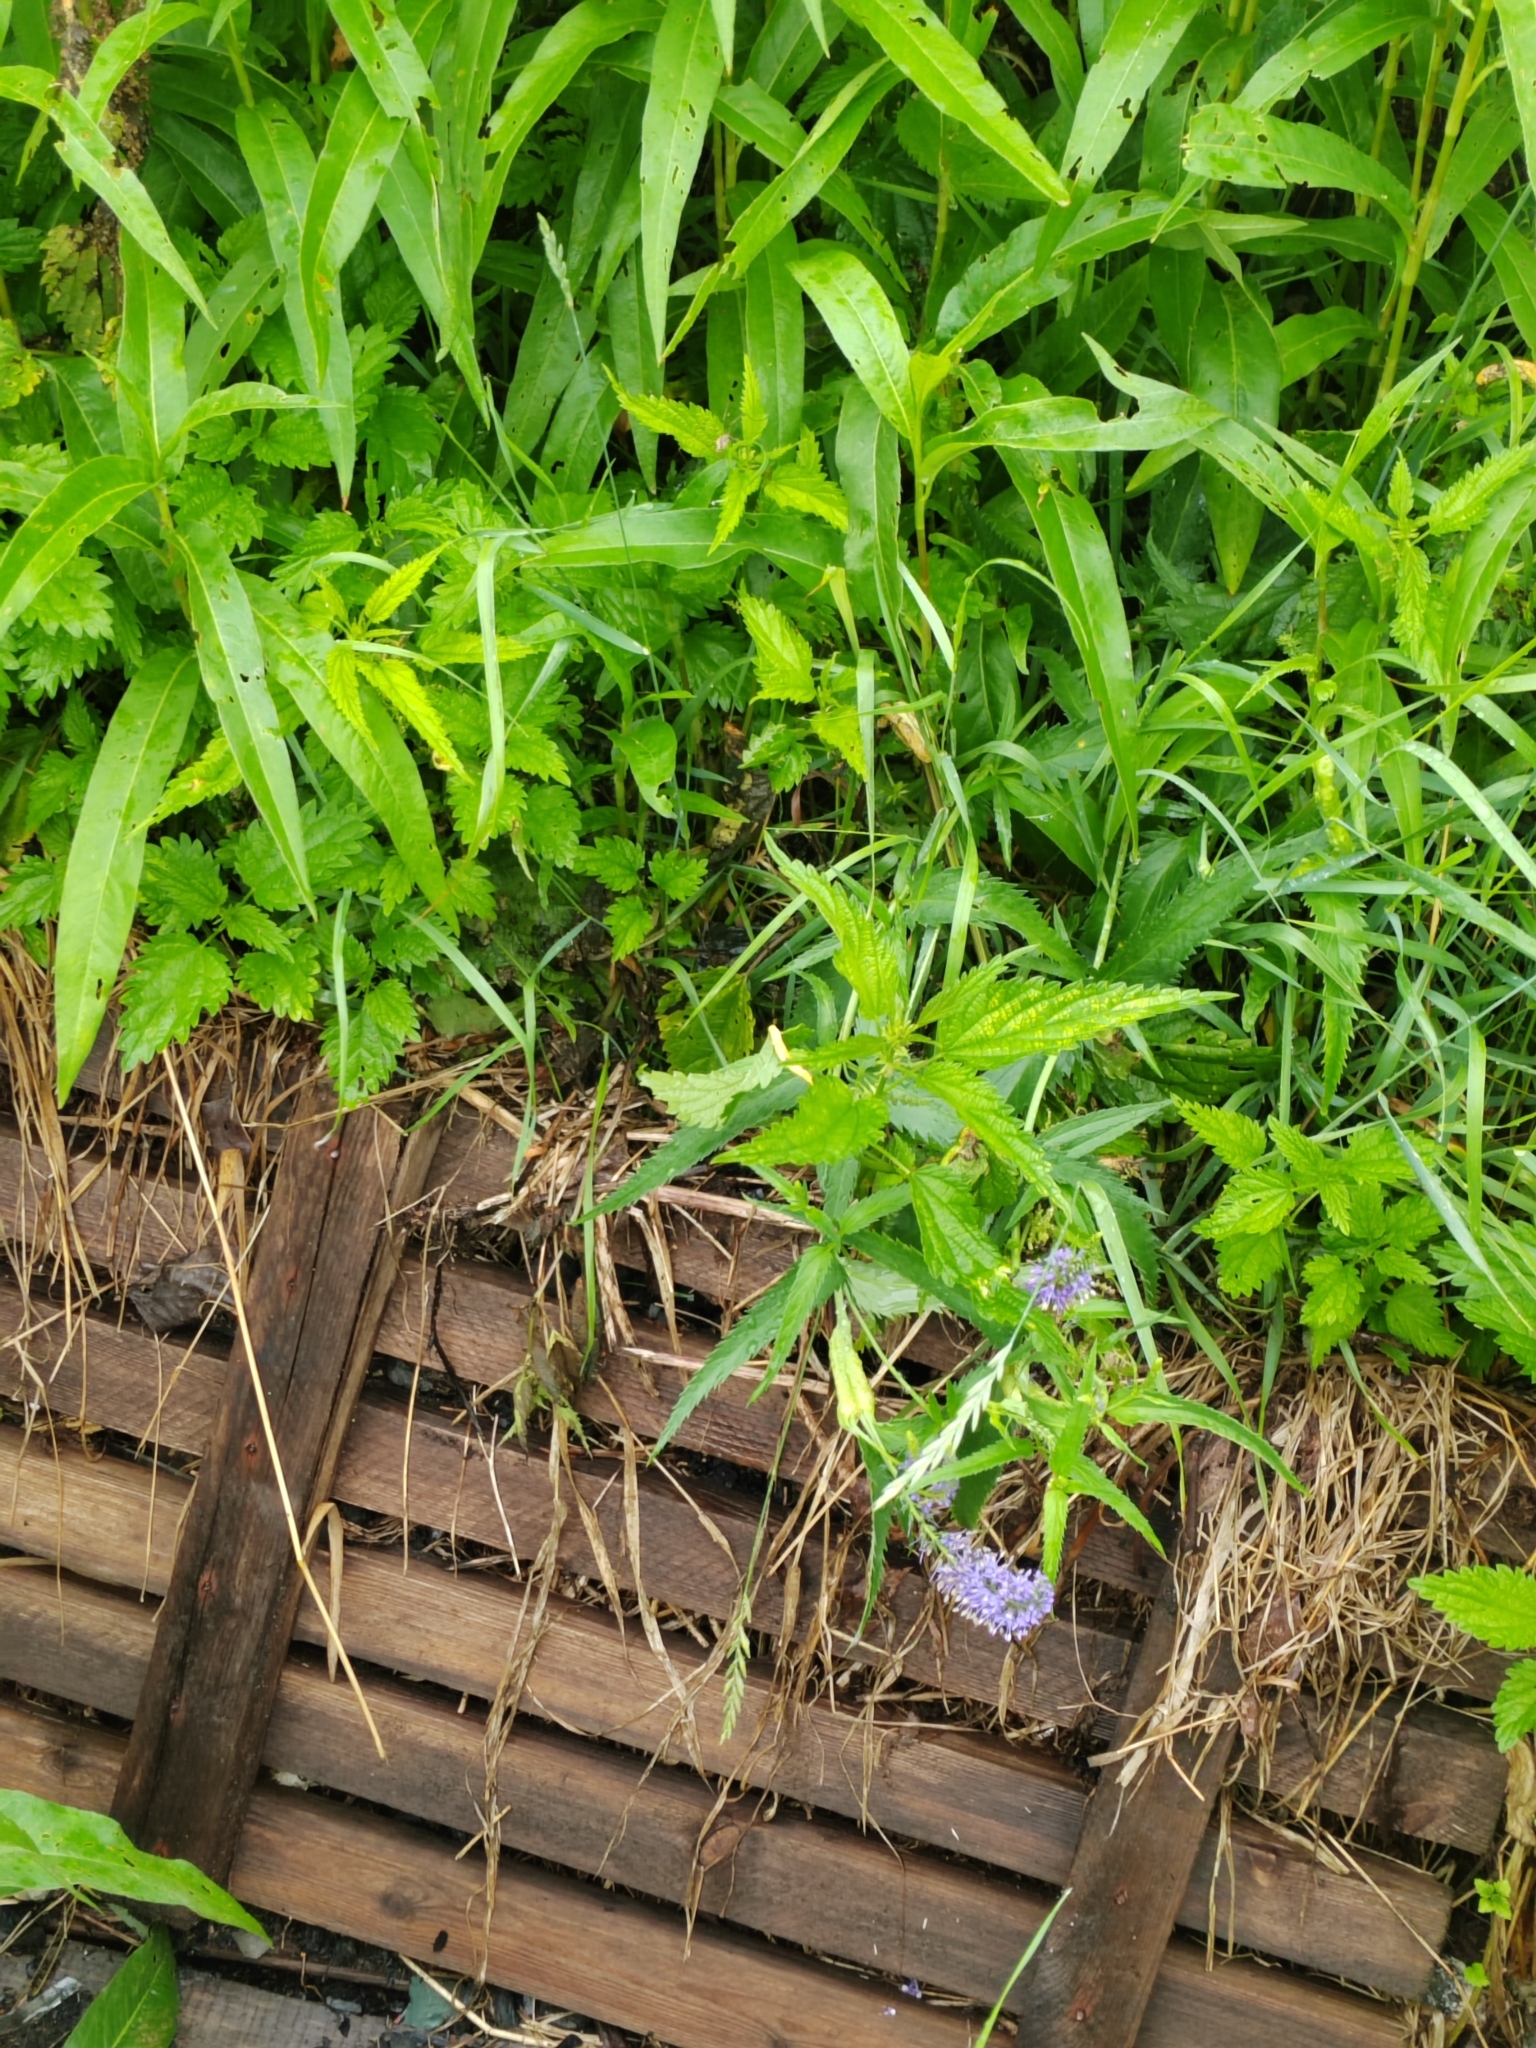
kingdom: Plantae
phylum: Tracheophyta
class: Magnoliopsida
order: Lamiales
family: Plantaginaceae
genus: Veronica
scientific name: Veronica longifolia
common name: Garden speedwell
